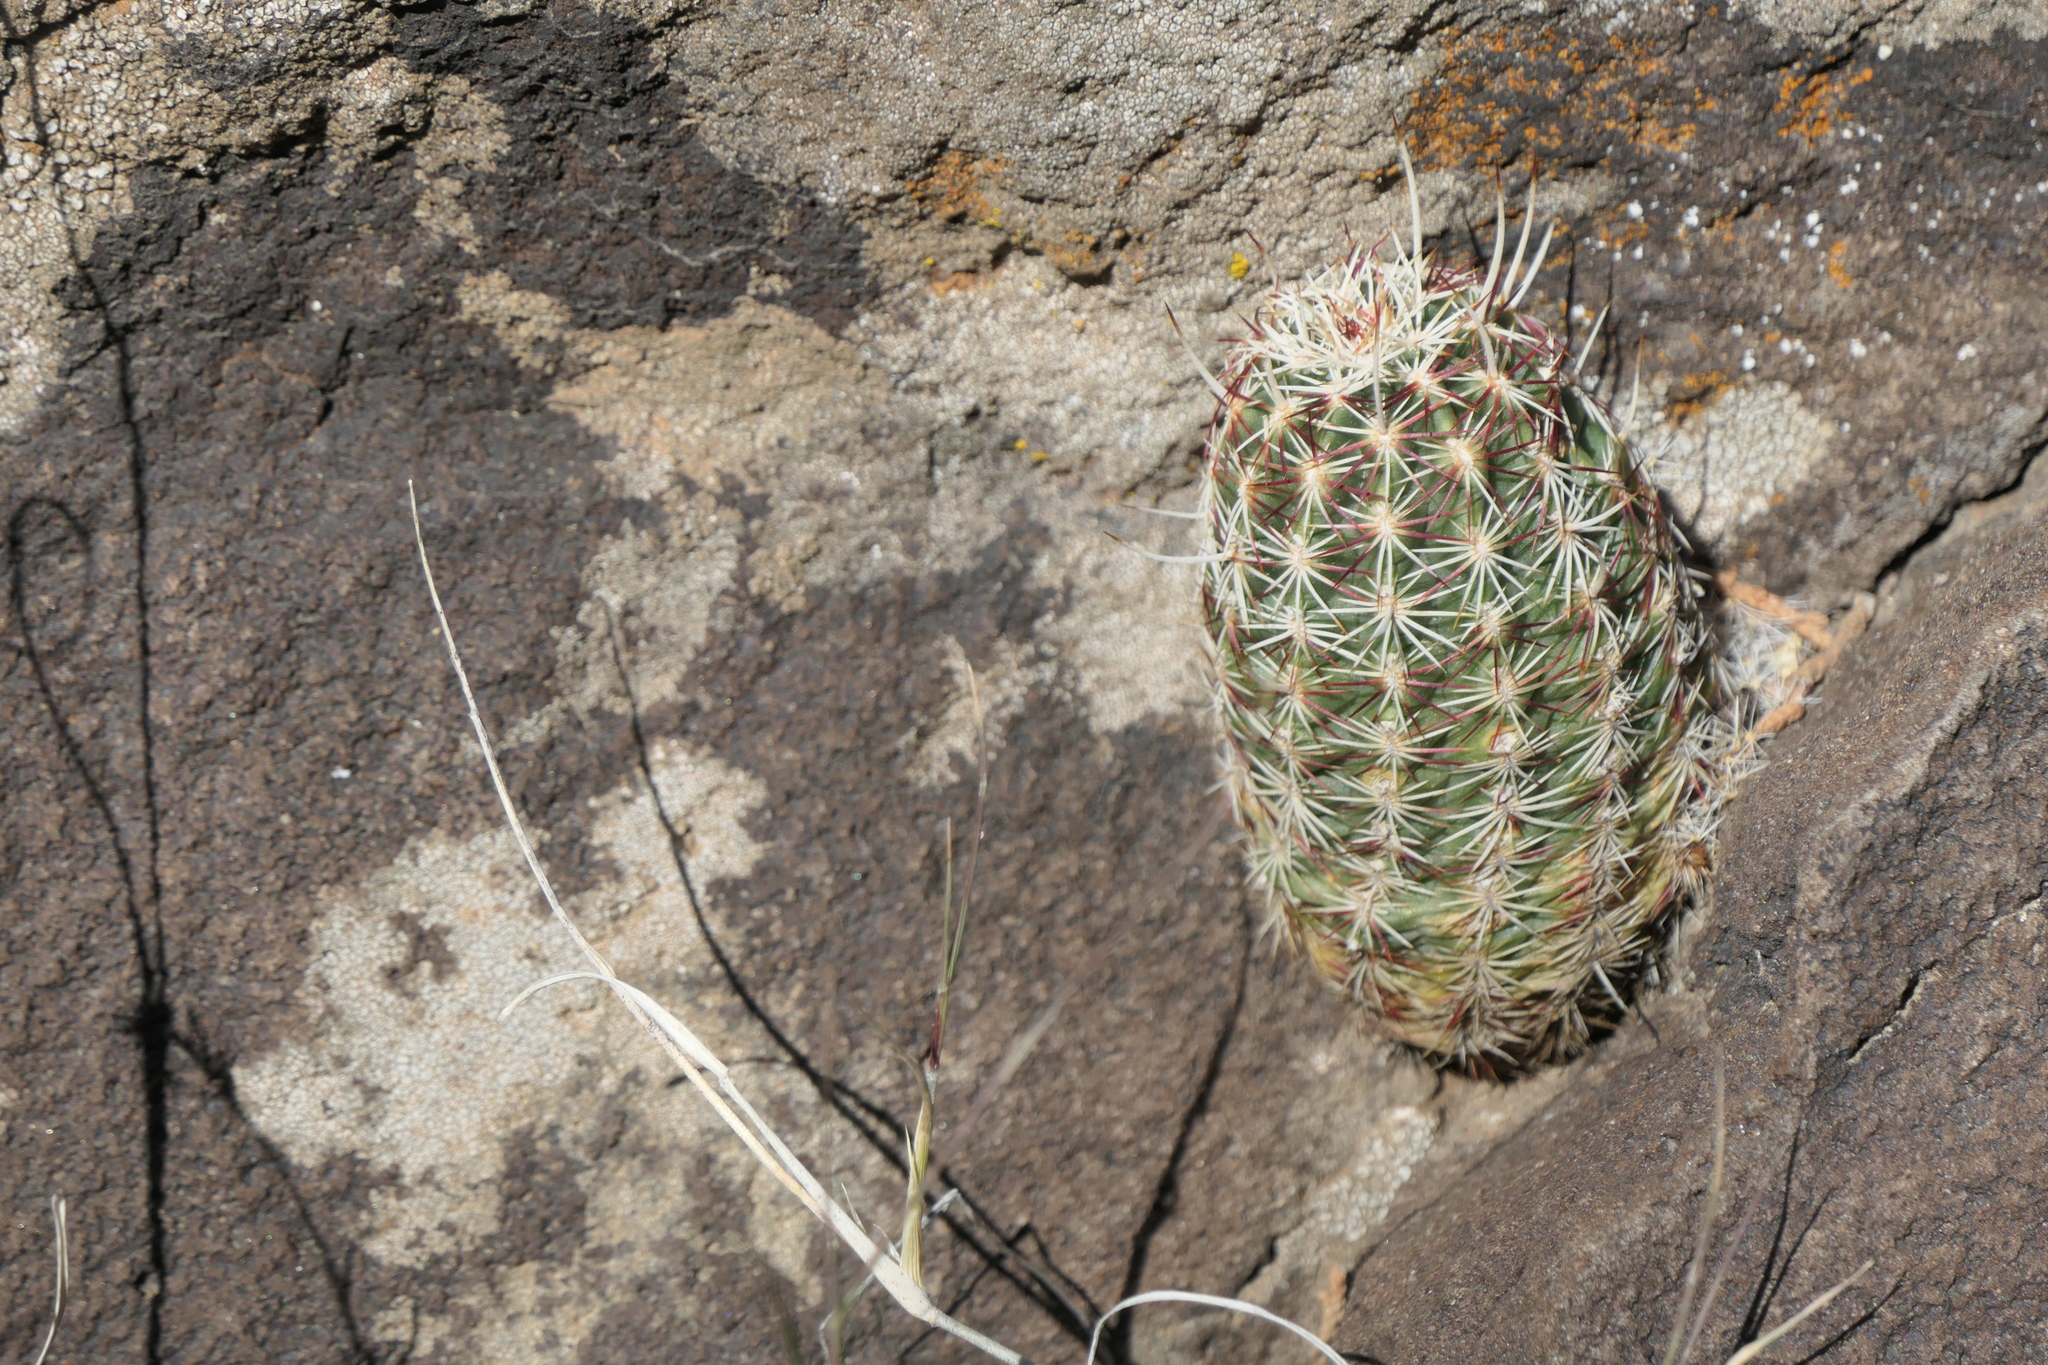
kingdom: Plantae
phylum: Tracheophyta
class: Magnoliopsida
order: Caryophyllales
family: Cactaceae
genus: Echinocereus
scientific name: Echinocereus viridiflorus
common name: Nylon hedgehog cactus
